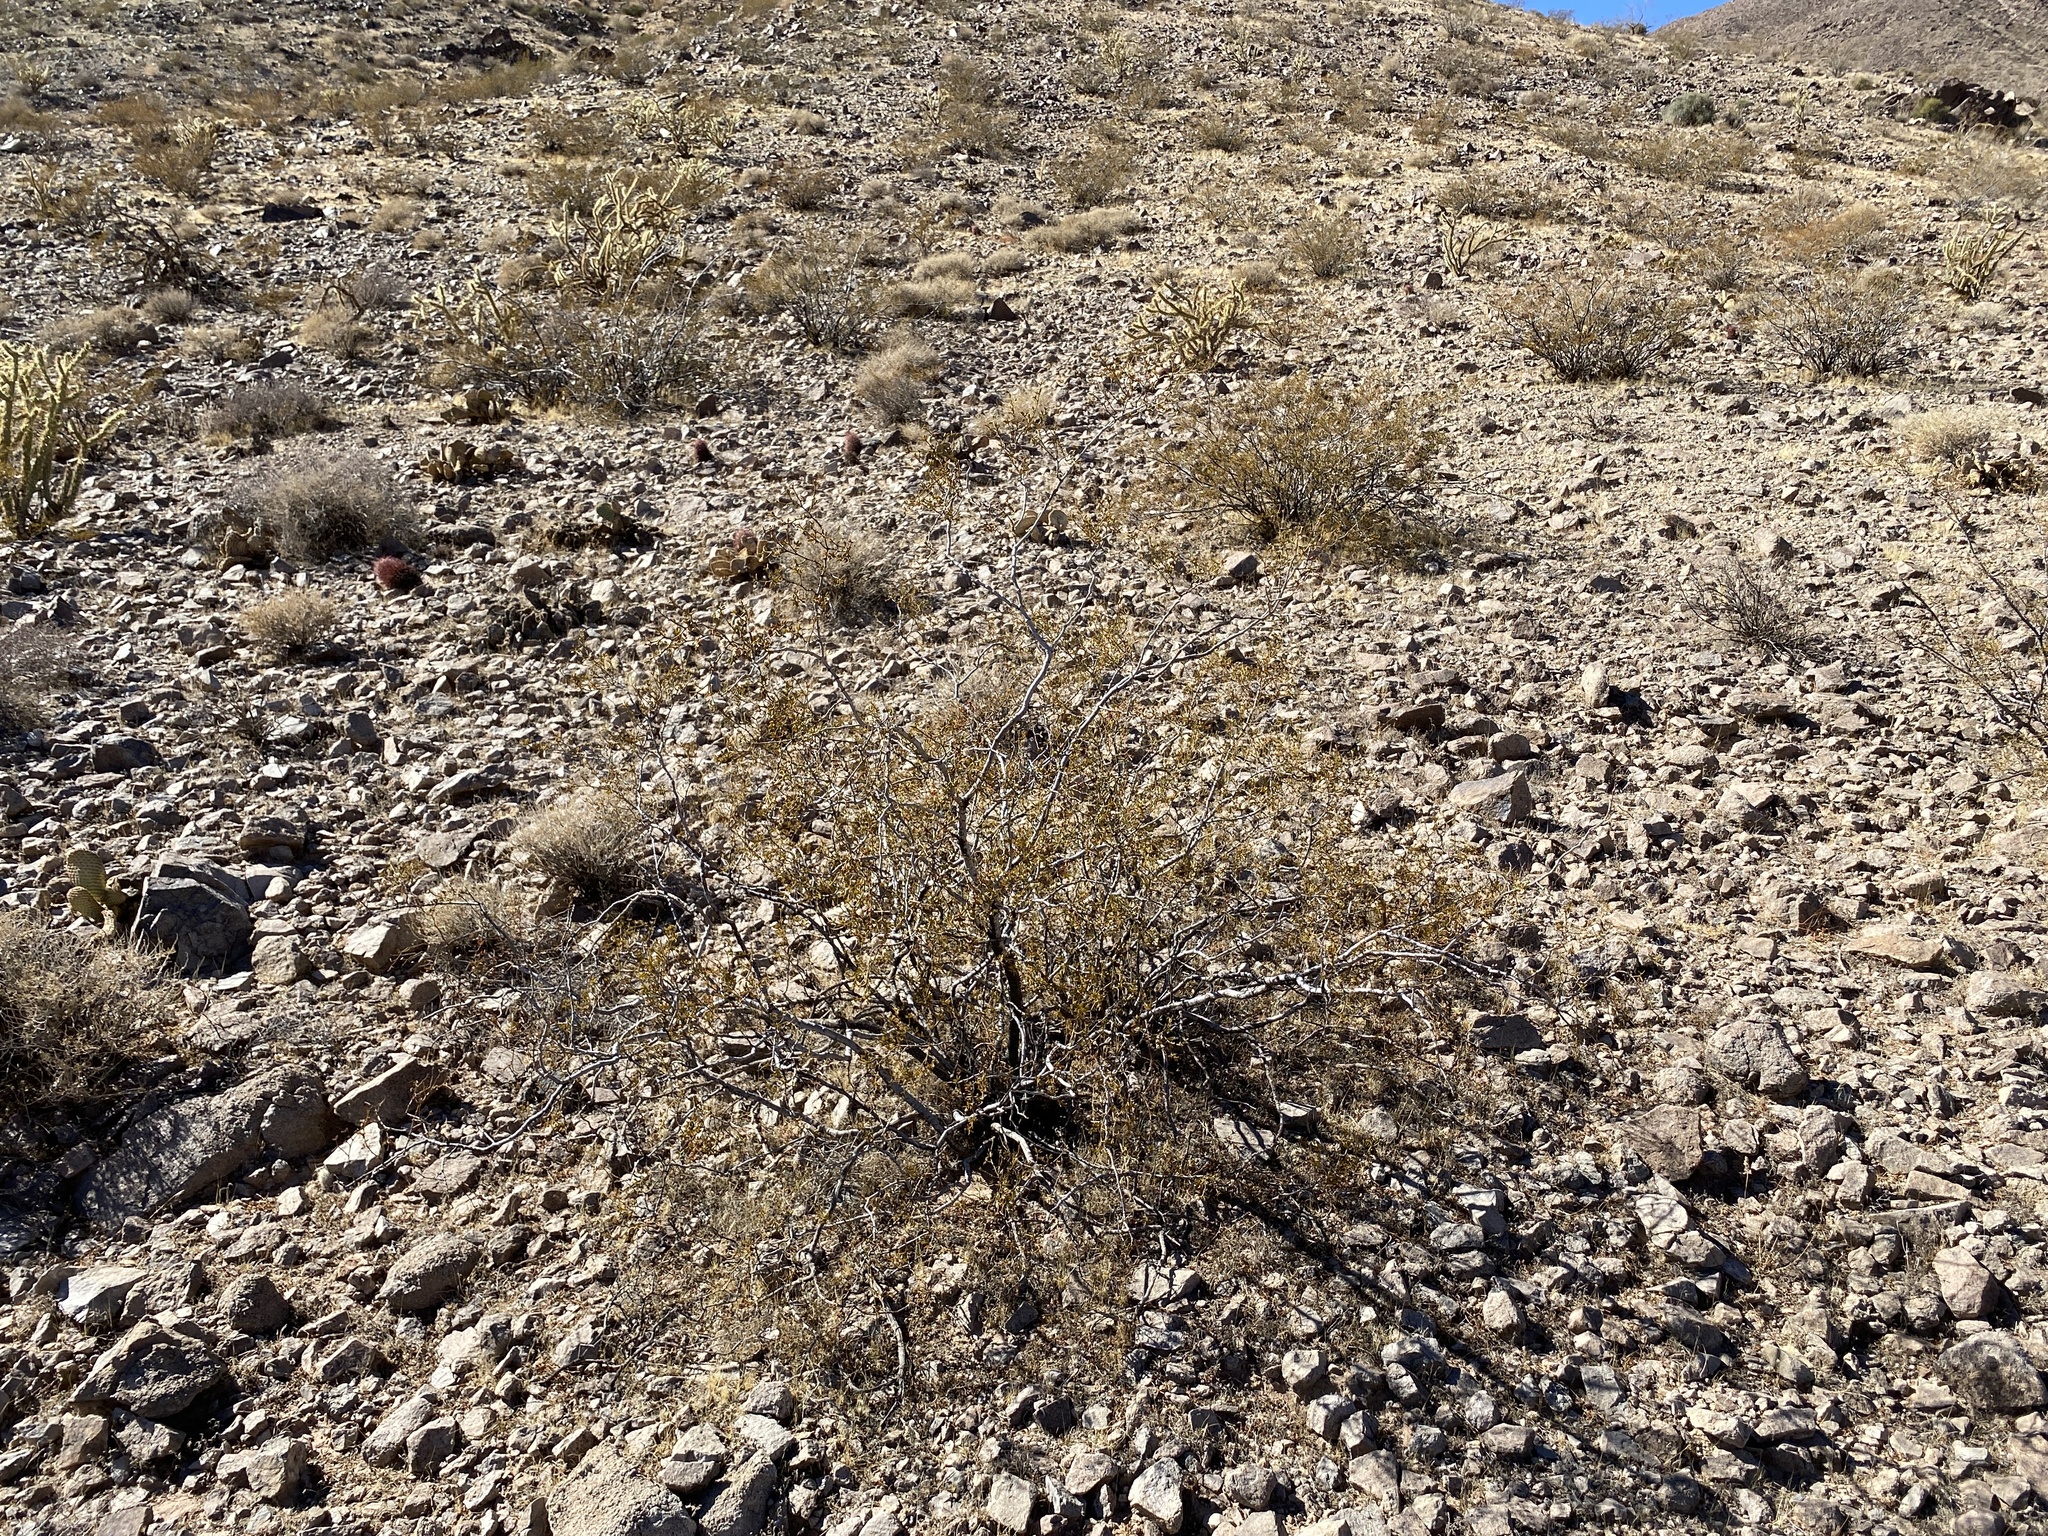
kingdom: Plantae
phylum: Tracheophyta
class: Magnoliopsida
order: Zygophyllales
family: Zygophyllaceae
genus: Larrea
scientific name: Larrea tridentata
